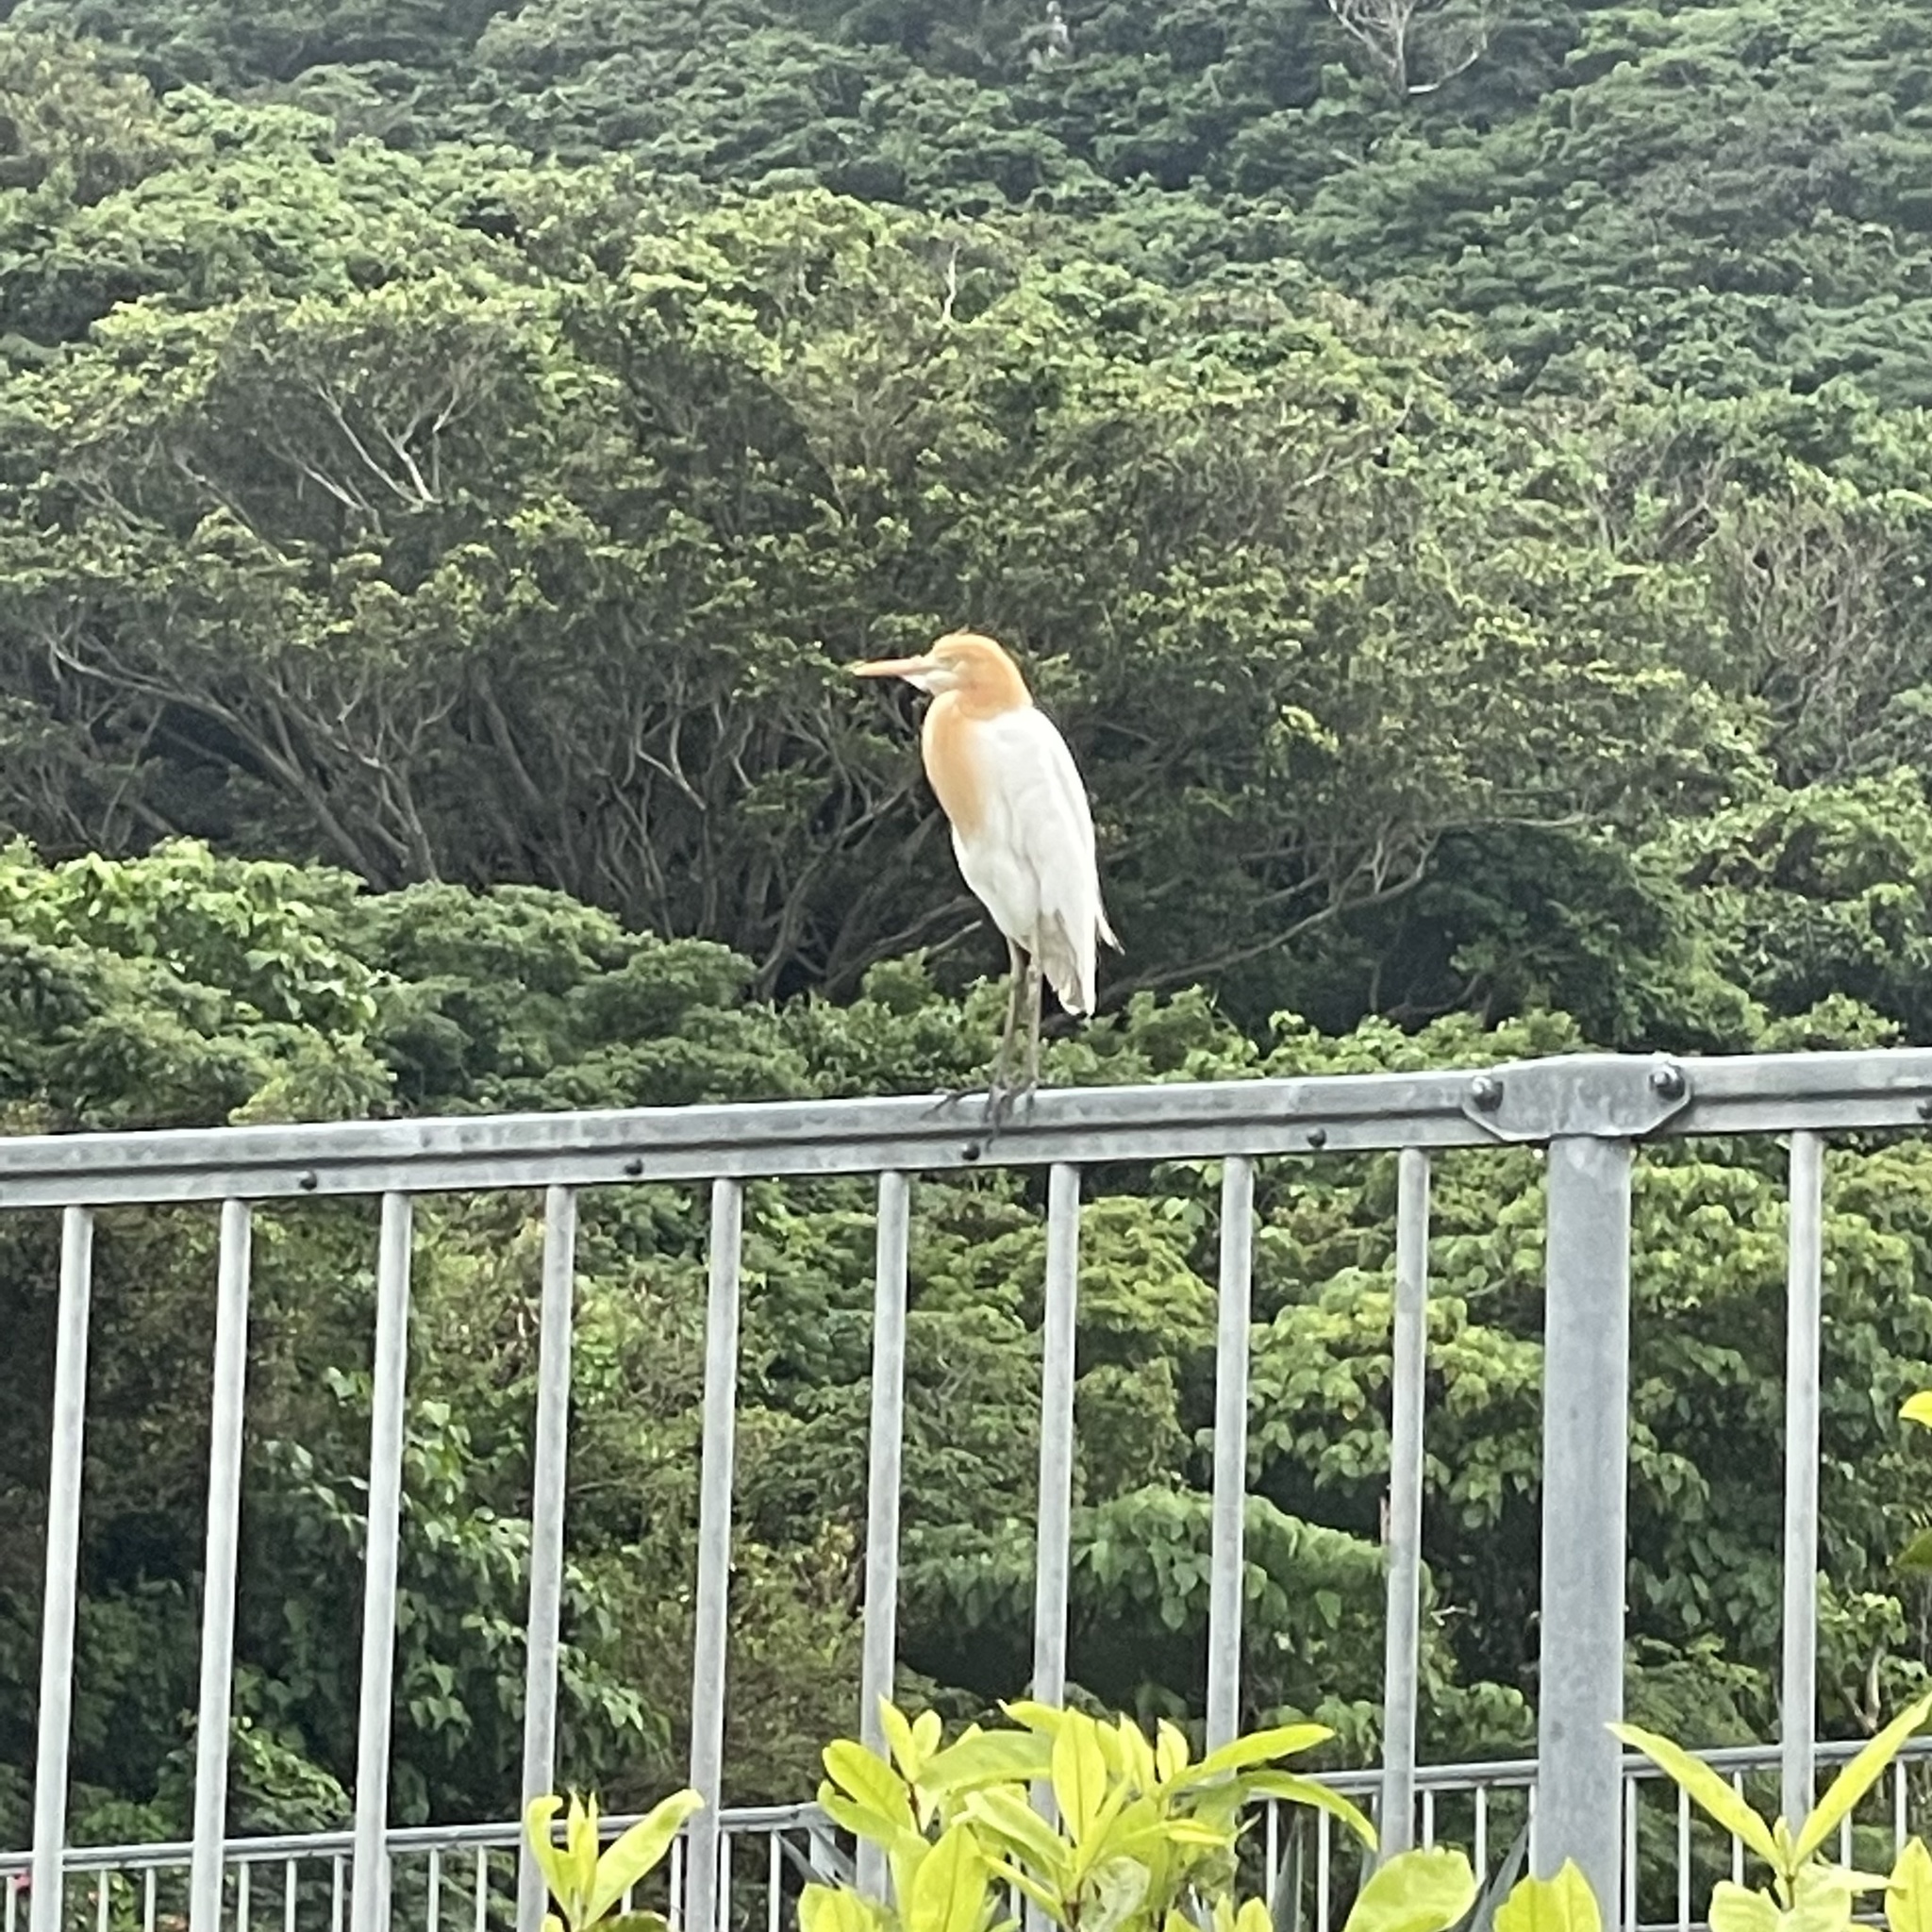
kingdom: Animalia
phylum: Chordata
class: Aves
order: Pelecaniformes
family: Ardeidae
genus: Bubulcus
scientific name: Bubulcus coromandus
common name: Eastern cattle egret
